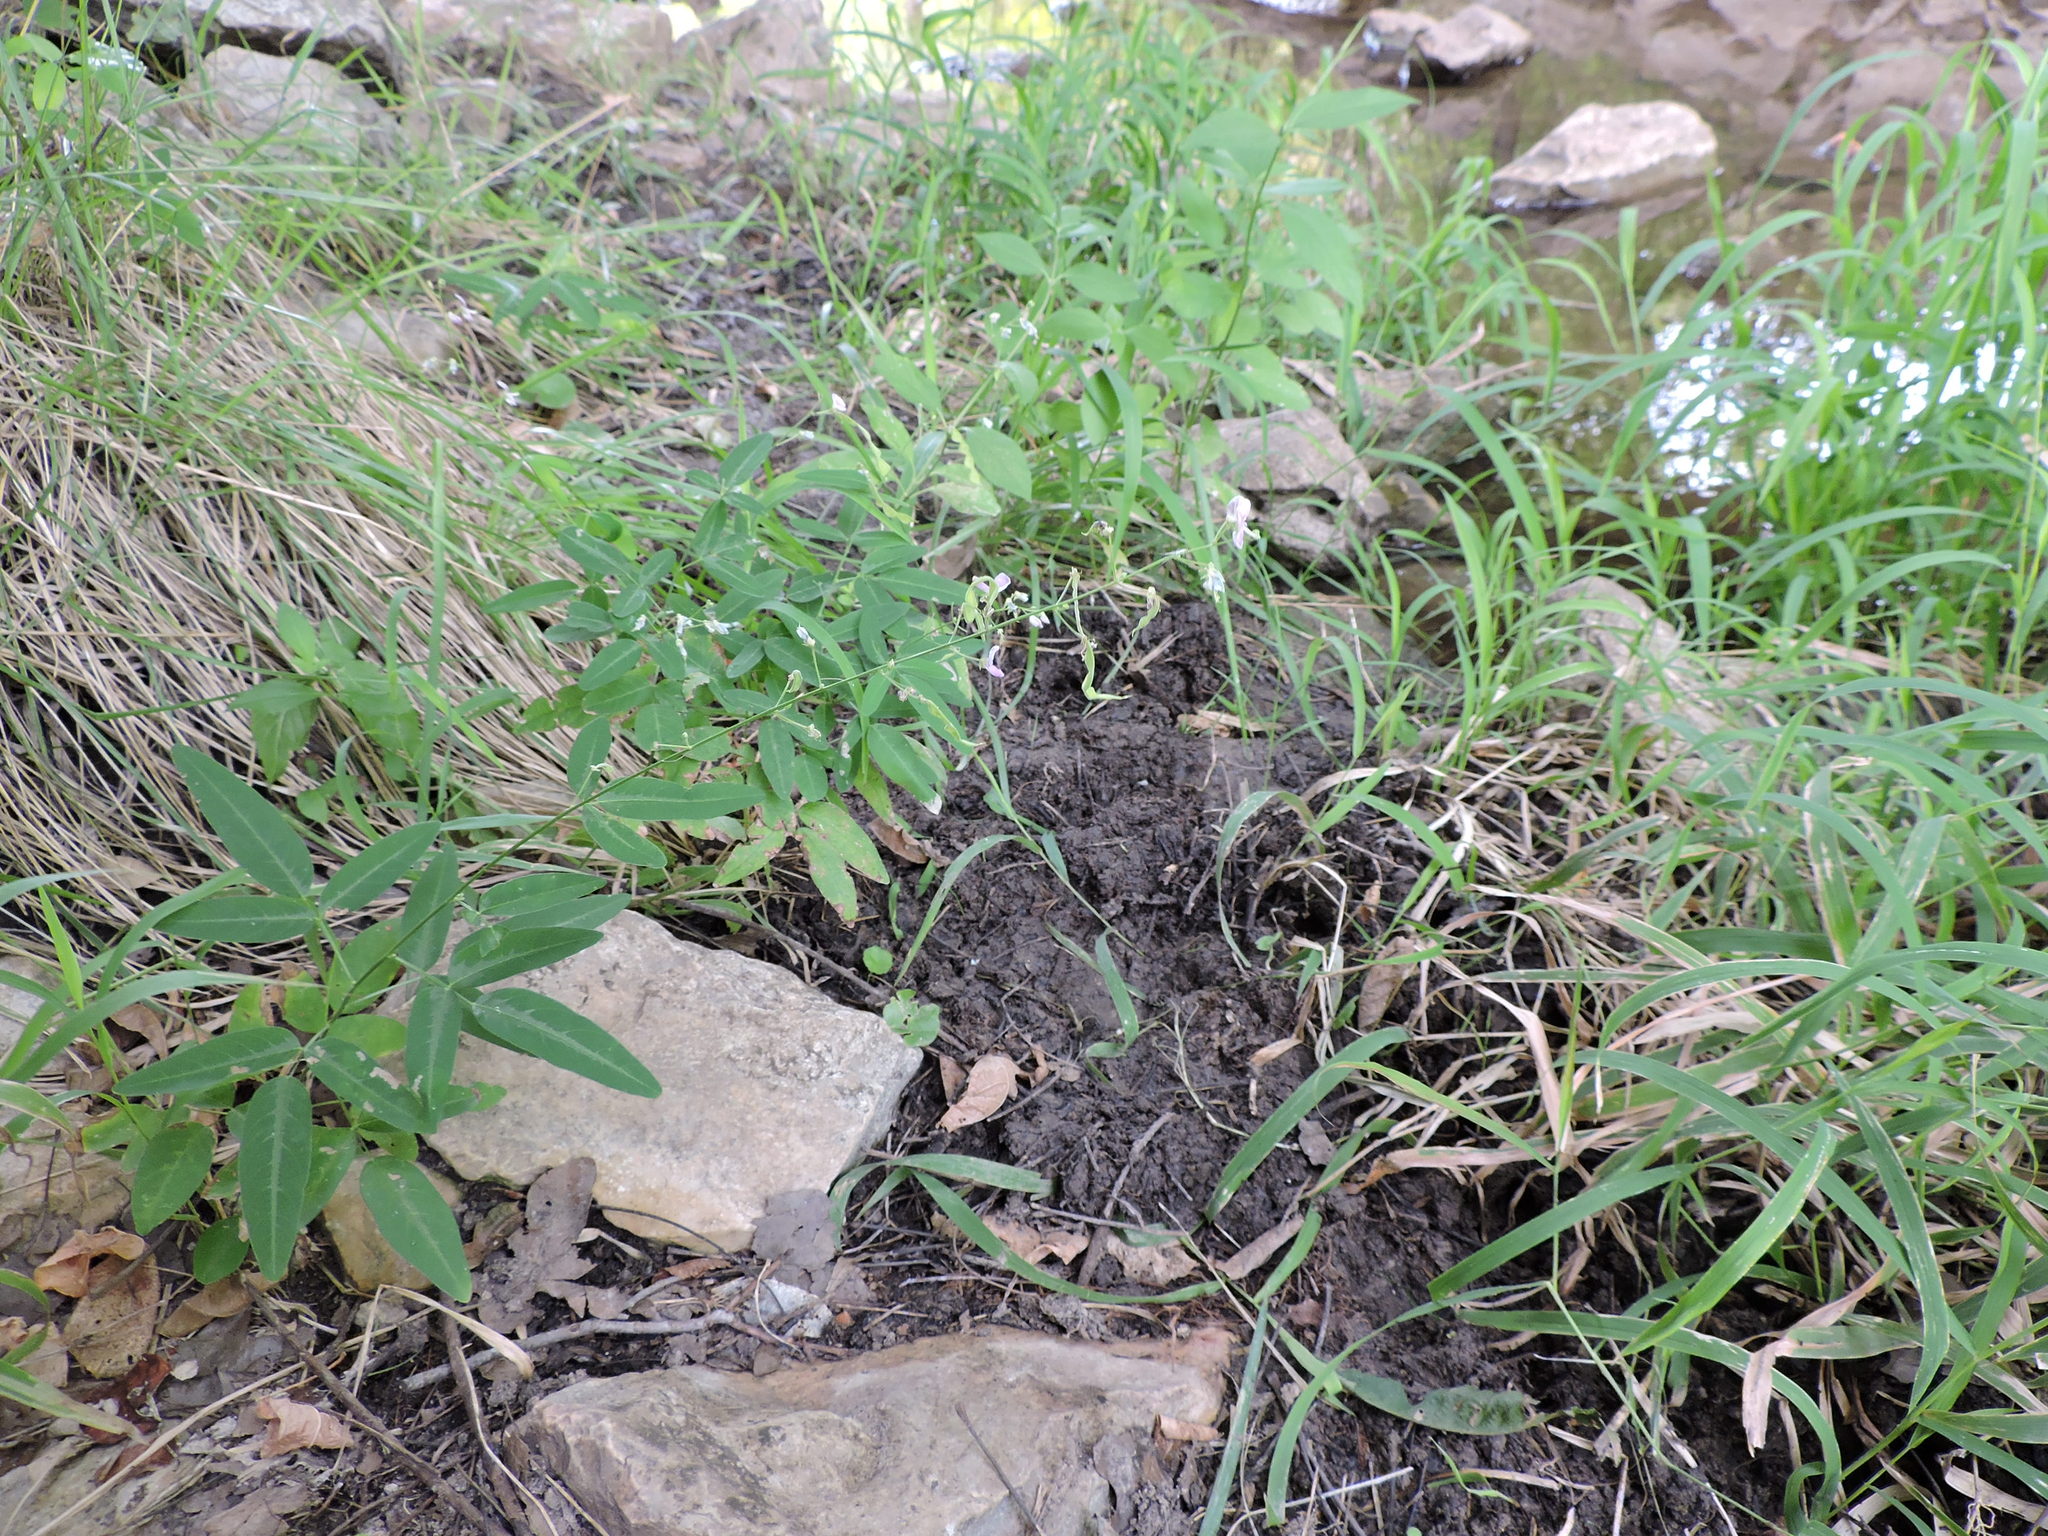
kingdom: Plantae
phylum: Tracheophyta
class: Magnoliopsida
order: Fabales
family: Fabaceae
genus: Desmodium
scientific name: Desmodium paniculatum
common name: Panicled tick-clover
